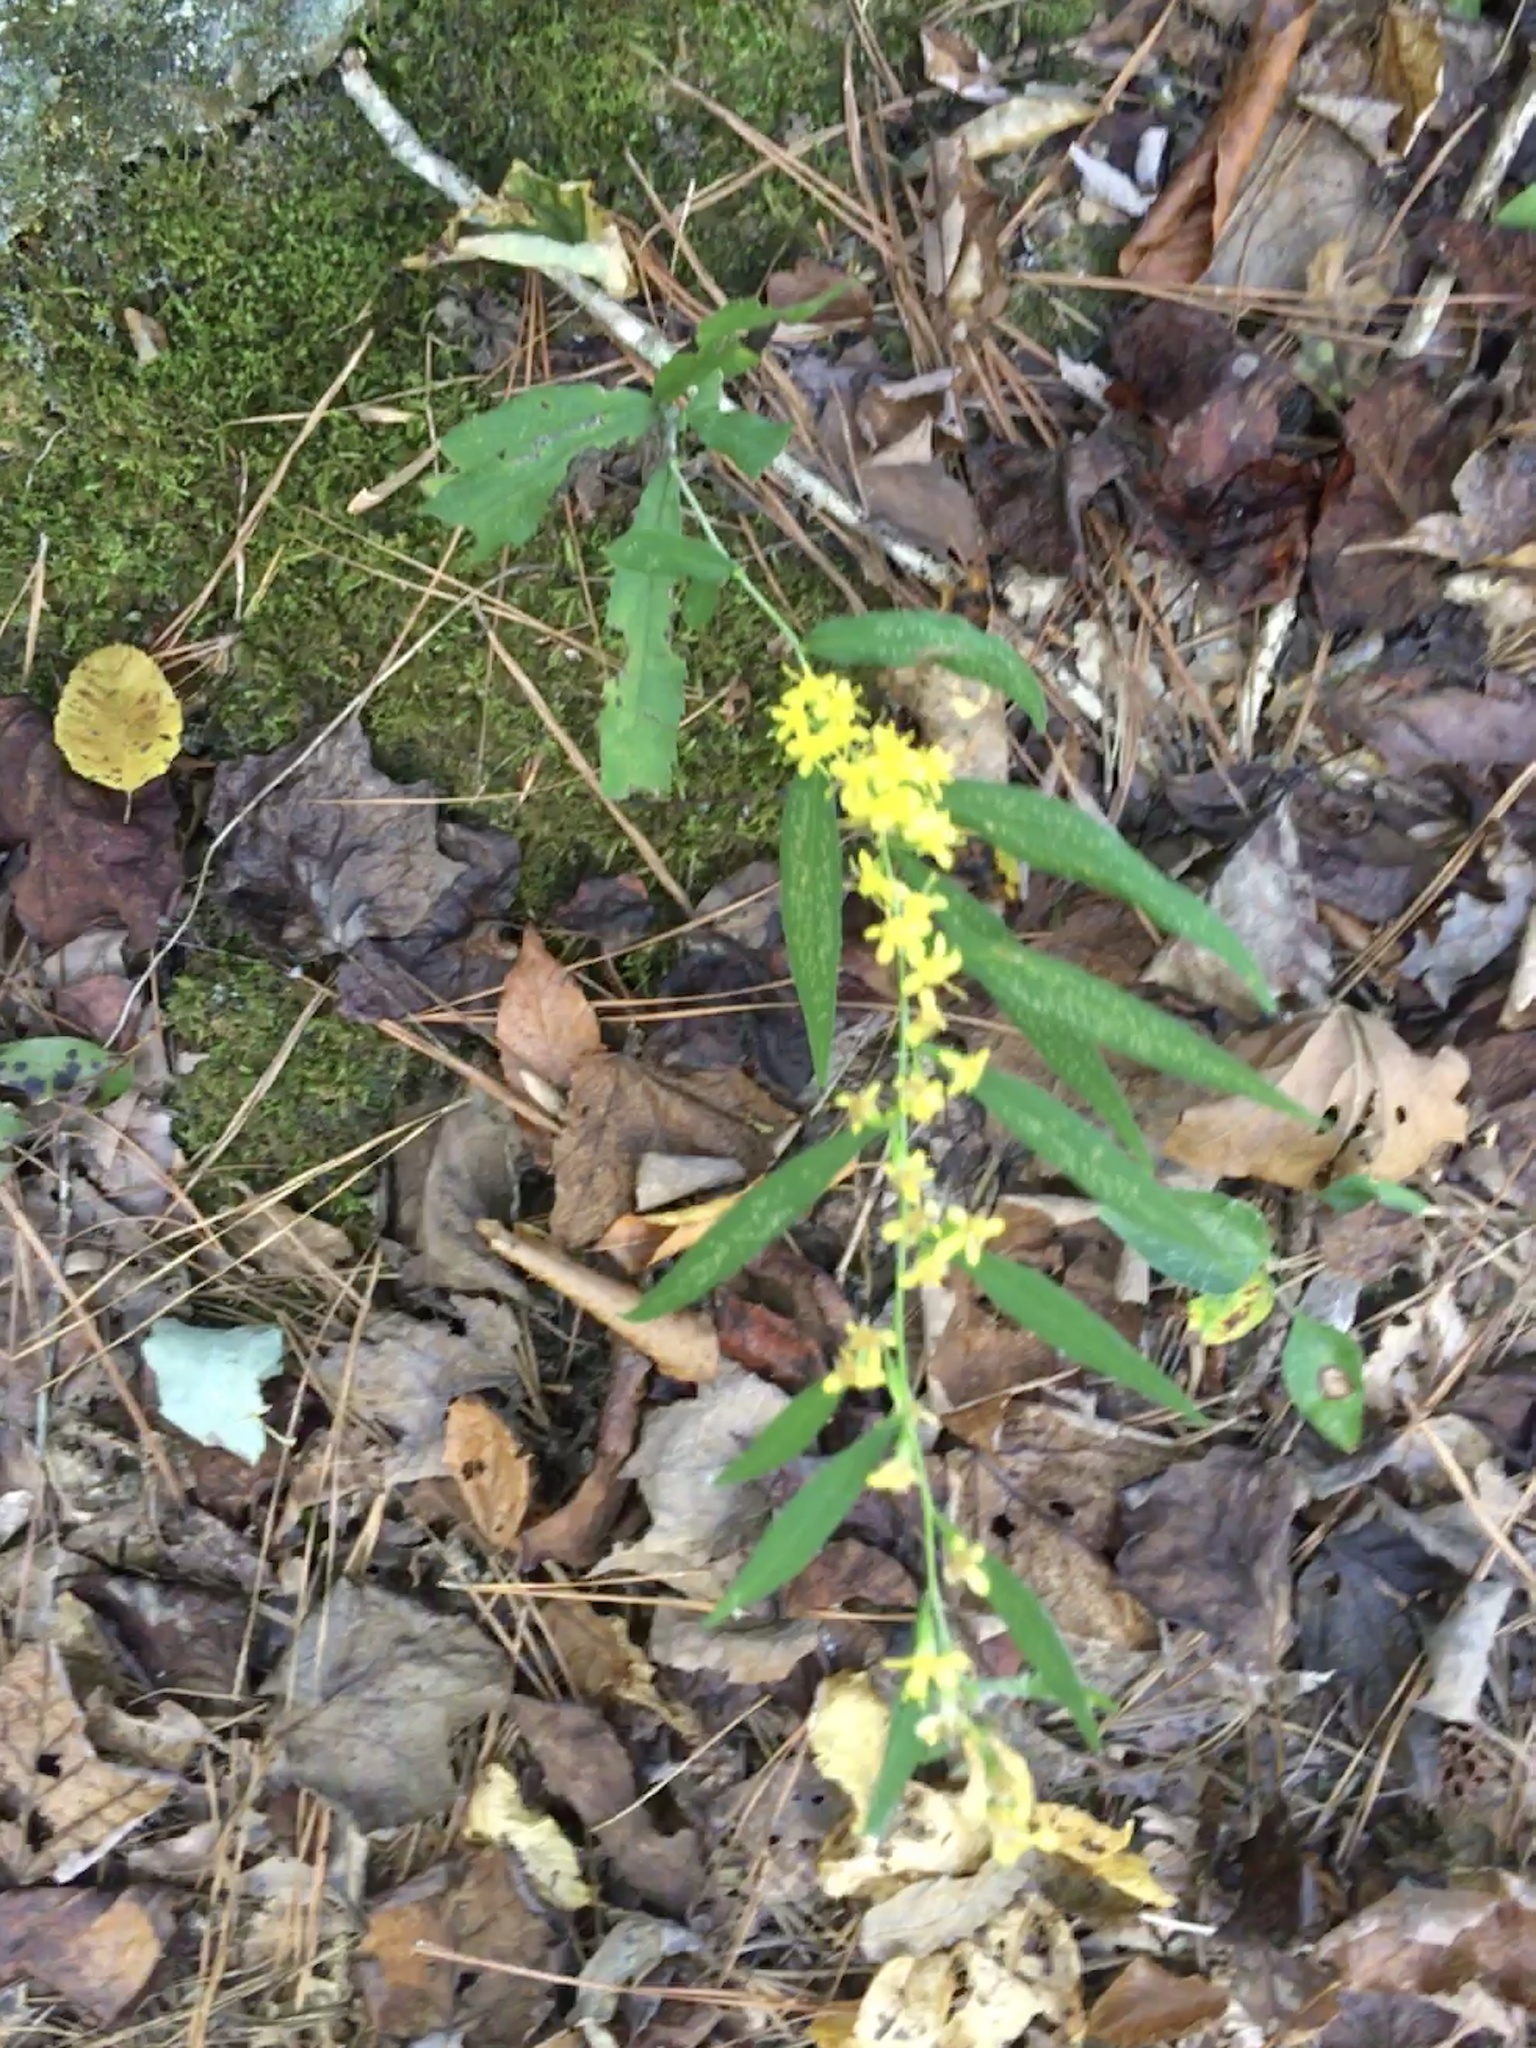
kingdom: Plantae
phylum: Tracheophyta
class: Magnoliopsida
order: Asterales
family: Asteraceae
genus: Solidago
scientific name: Solidago caesia
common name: Woodland goldenrod
